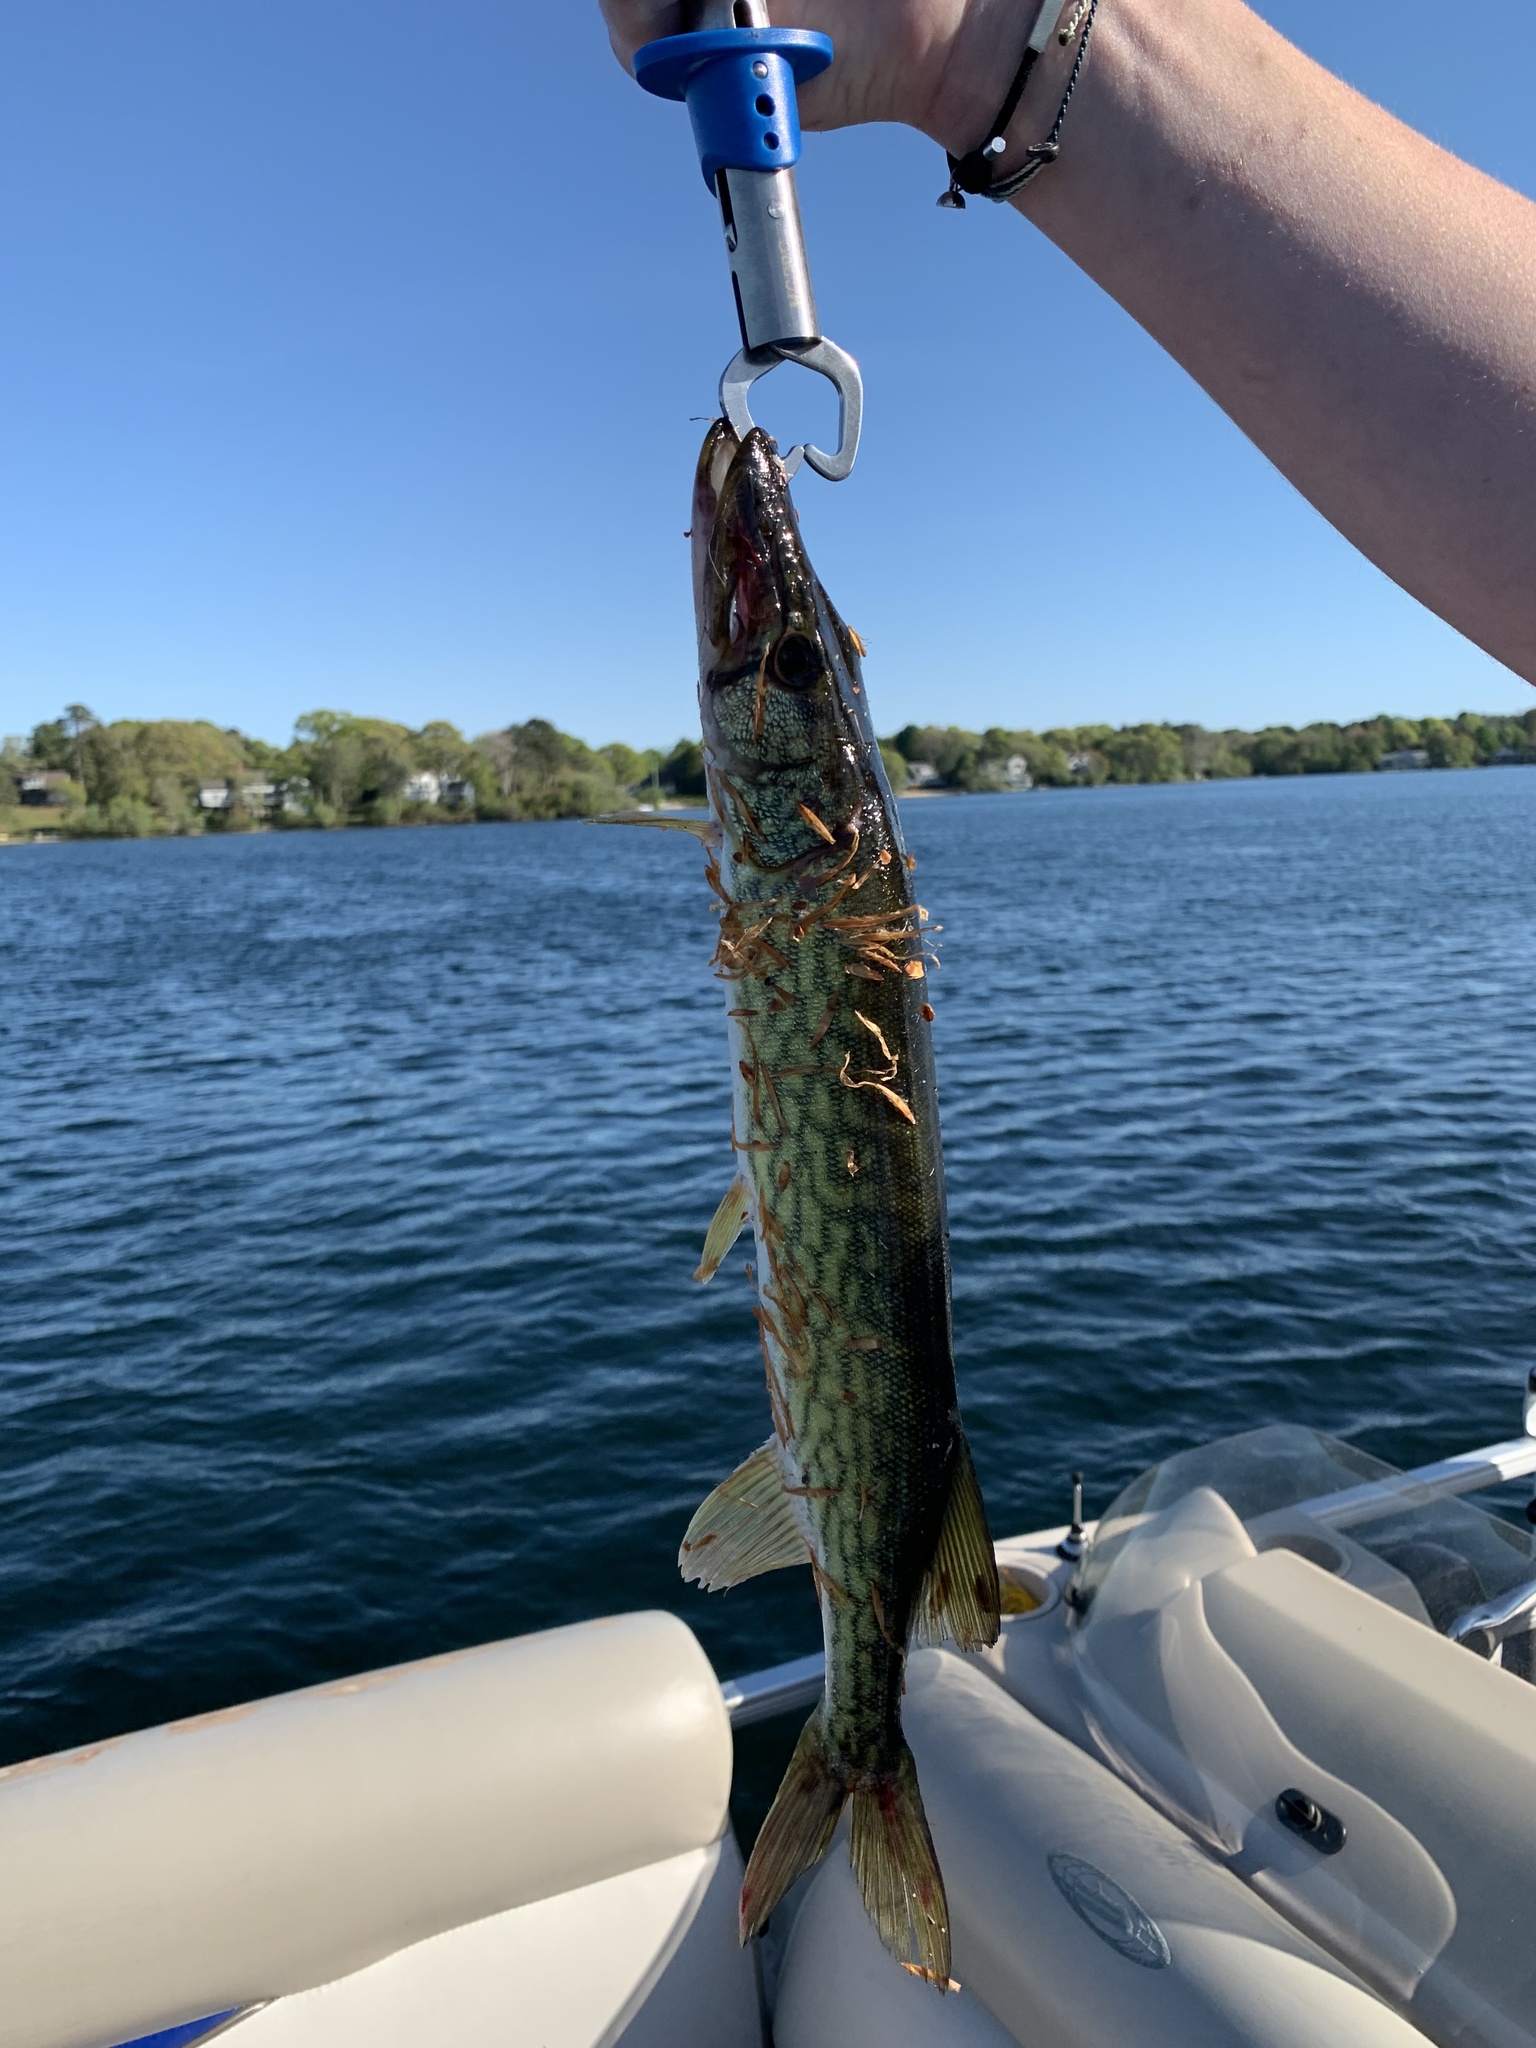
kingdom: Animalia
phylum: Chordata
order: Esociformes
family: Esocidae
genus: Esox
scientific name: Esox niger
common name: Chain pickerel
